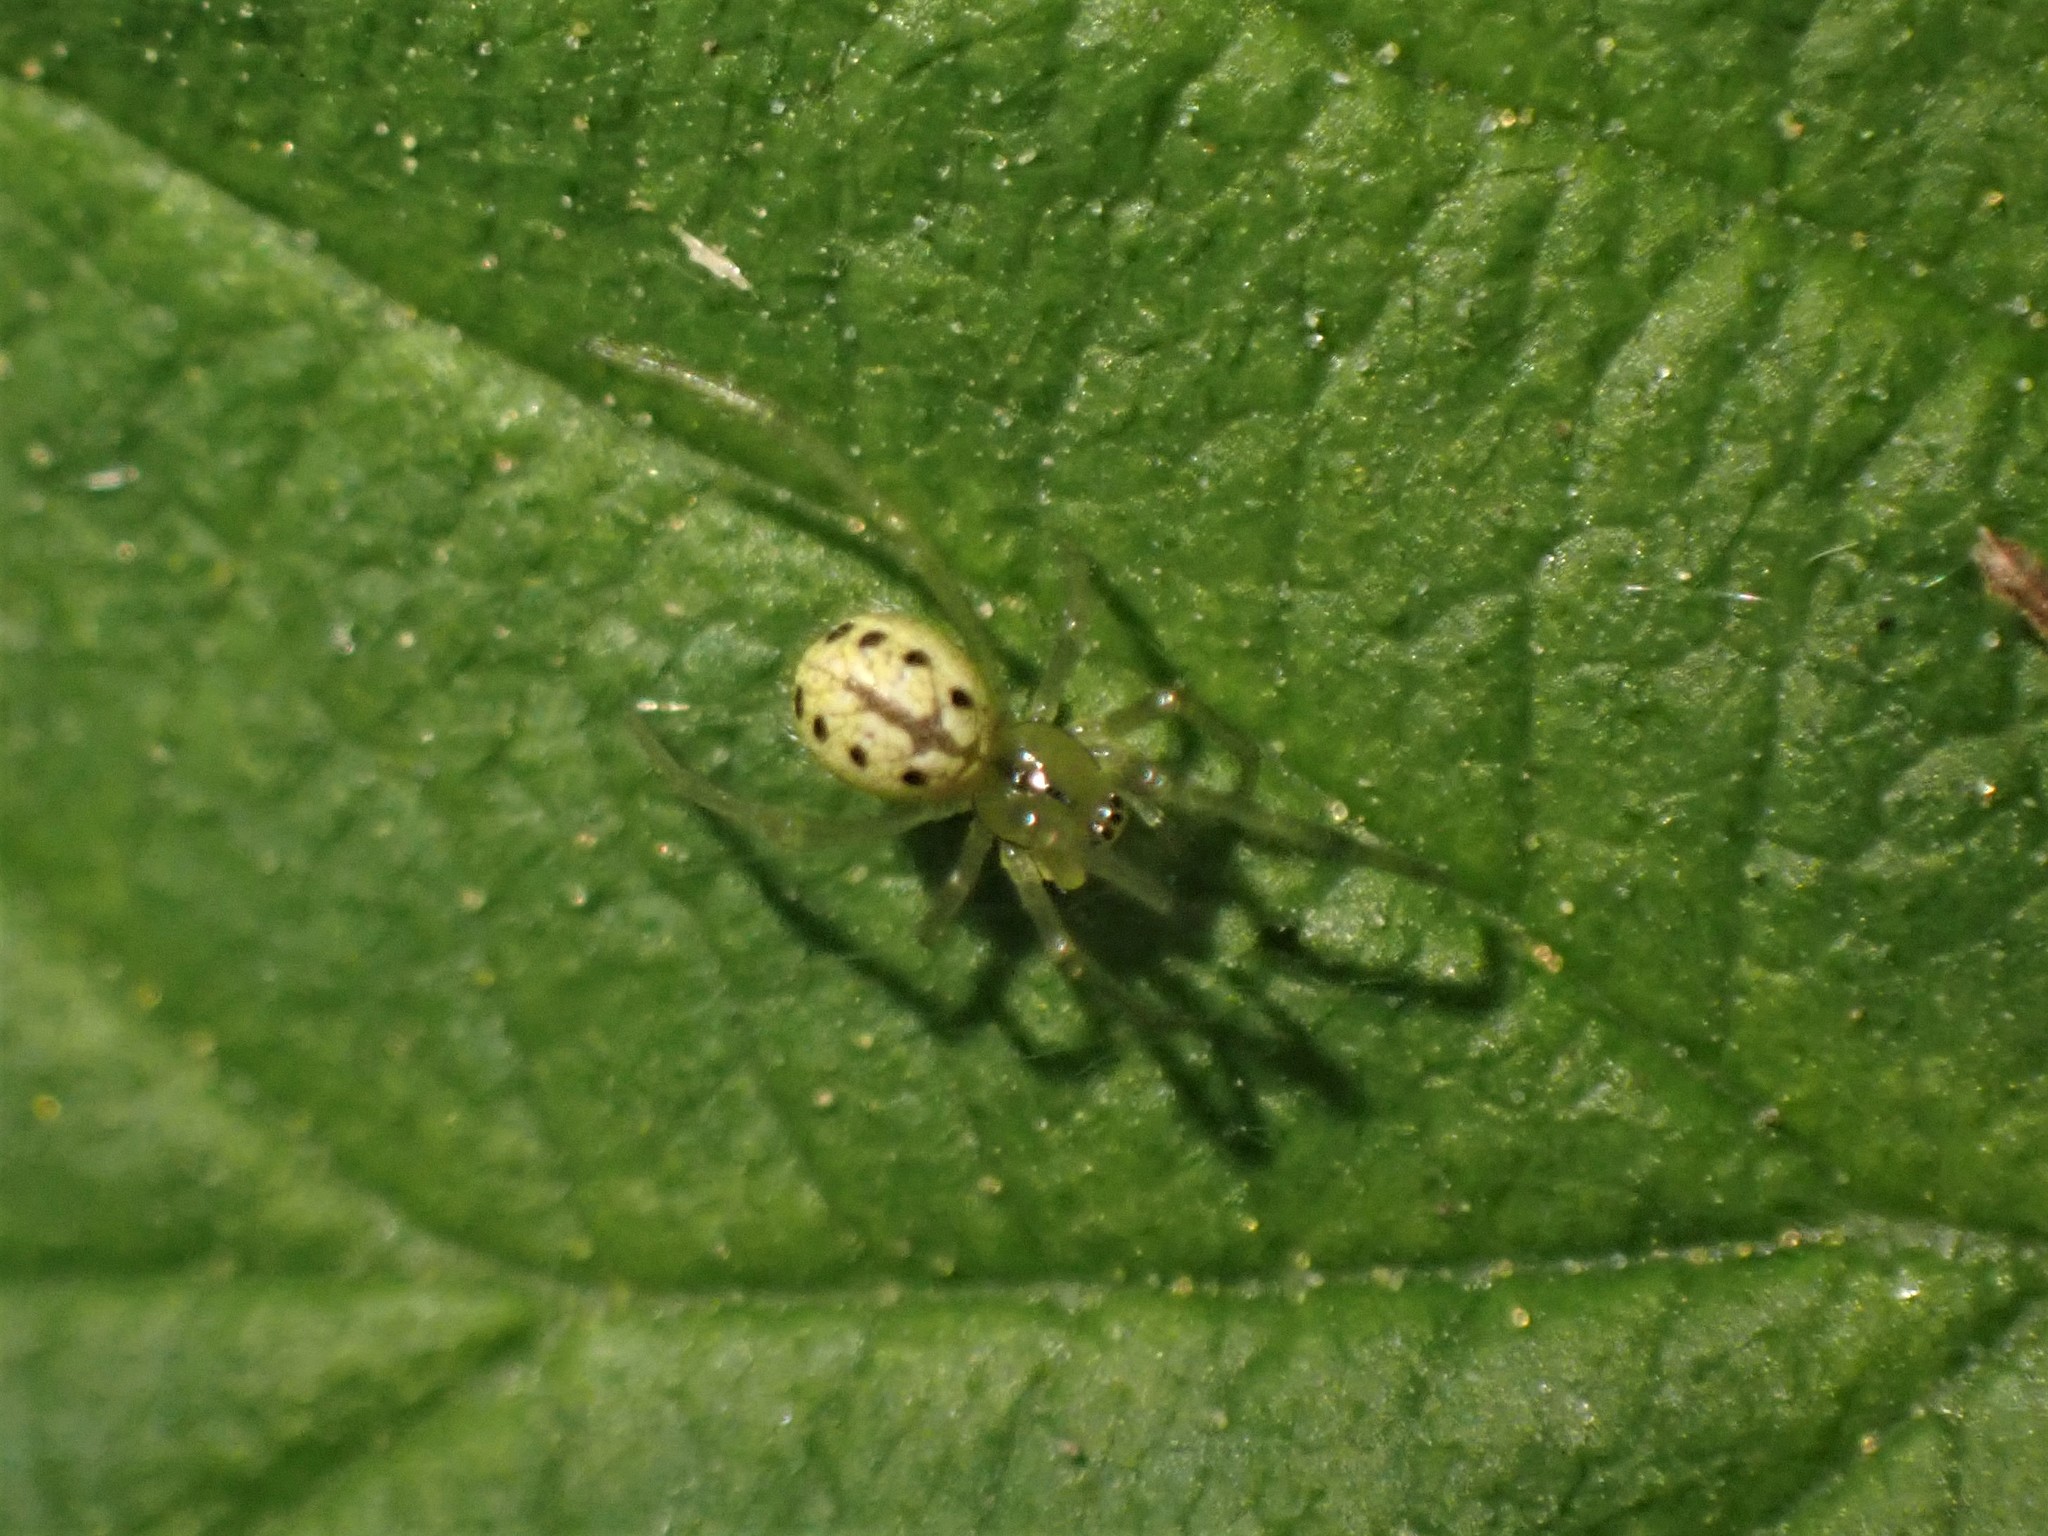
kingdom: Animalia
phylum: Arthropoda
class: Arachnida
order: Araneae
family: Theridiidae
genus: Enoplognatha
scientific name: Enoplognatha ovata
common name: Common candy-striped spider
